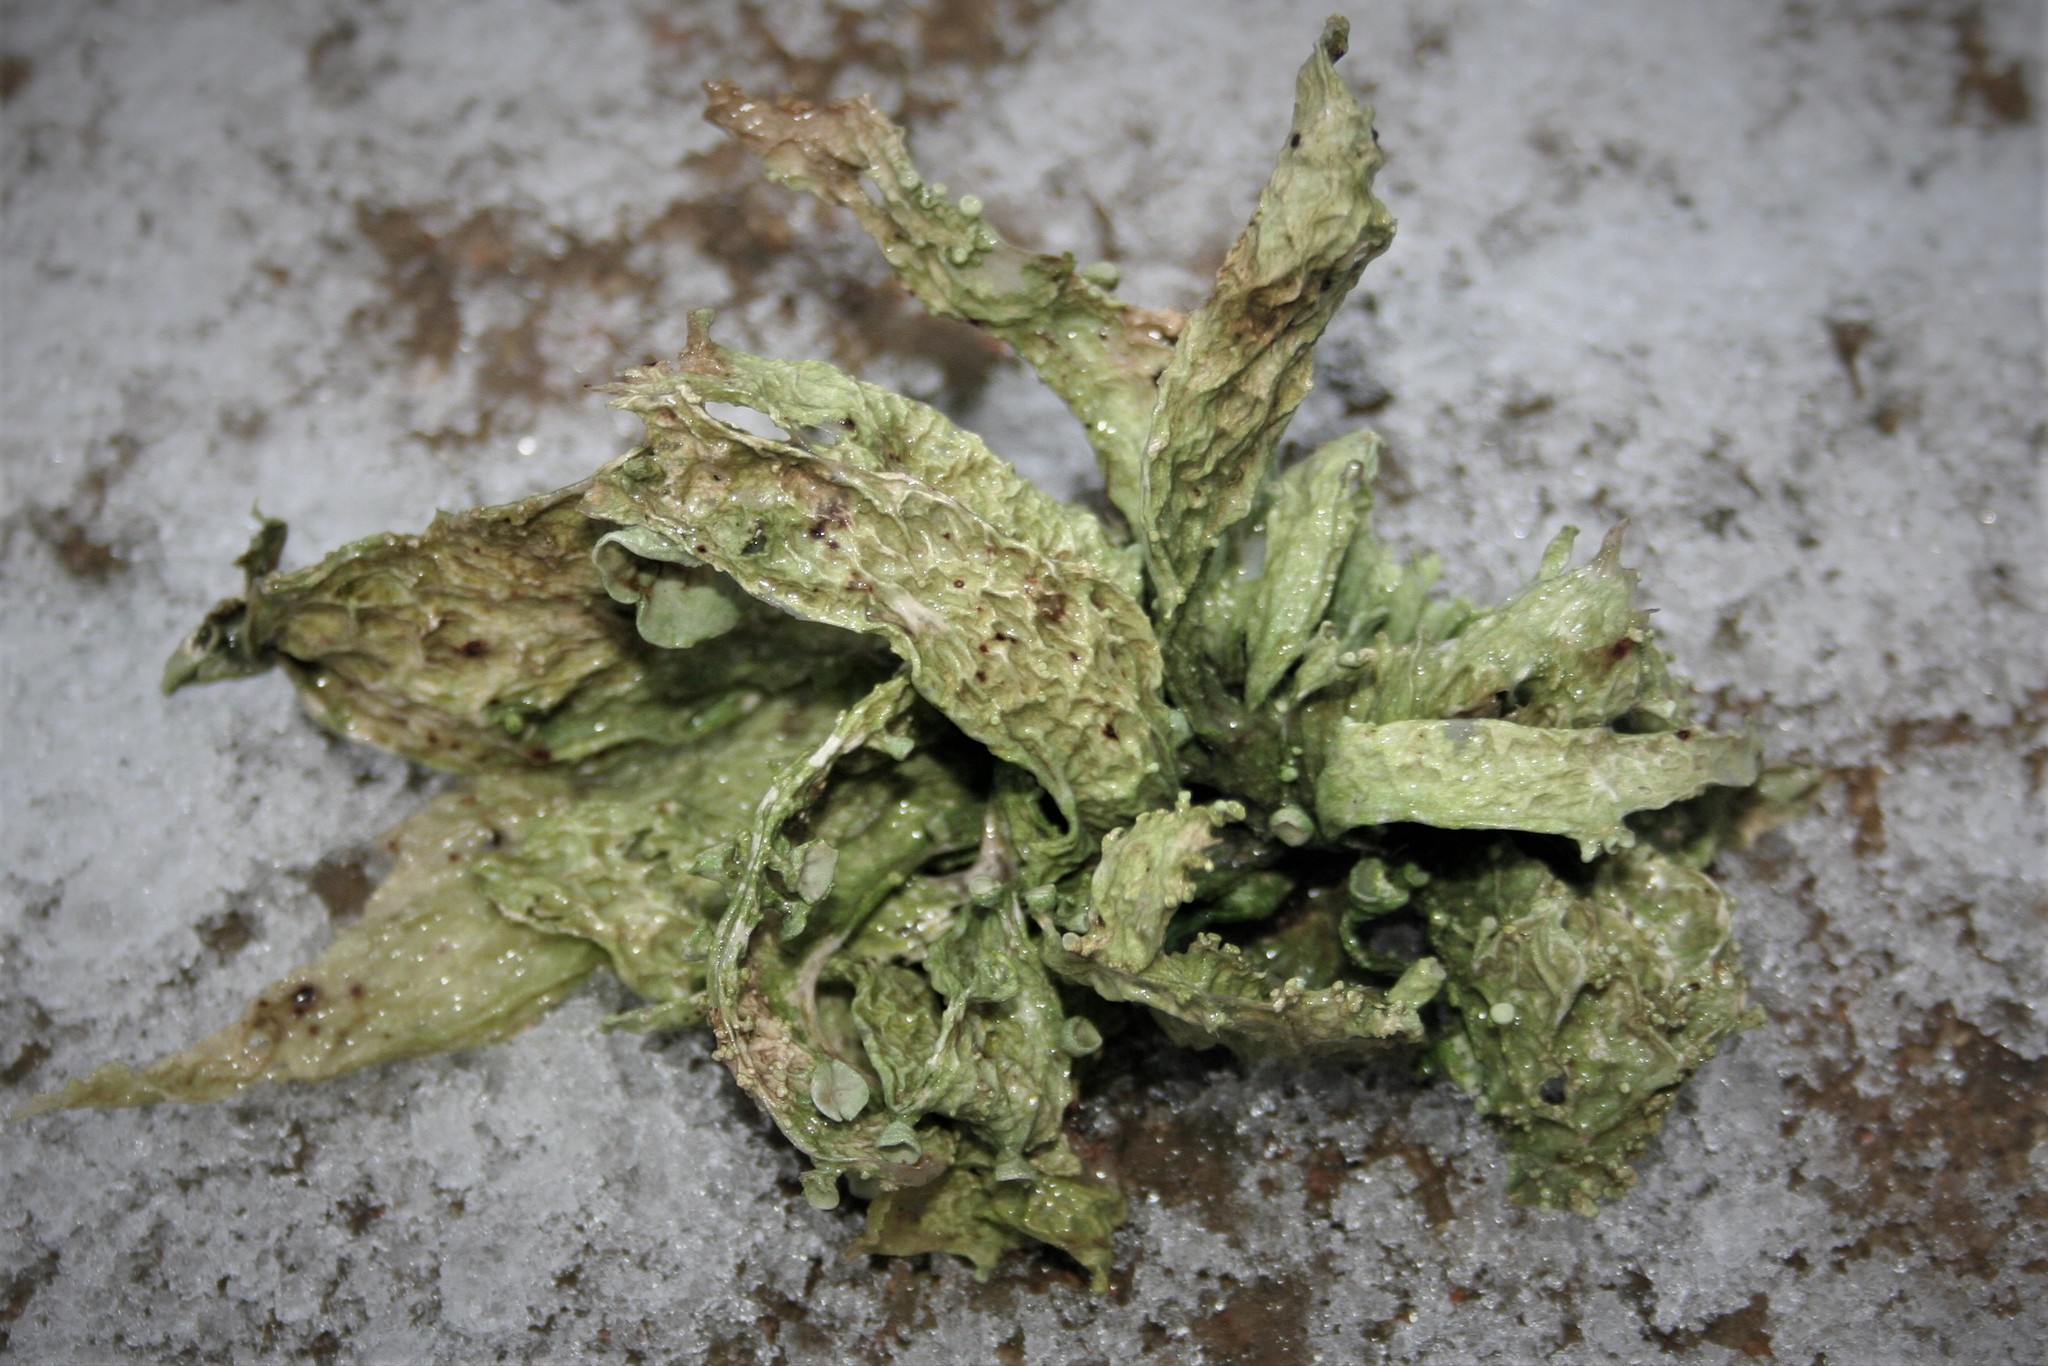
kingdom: Fungi
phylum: Ascomycota
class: Lecanoromycetes
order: Lecanorales
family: Ramalinaceae
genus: Ramalina
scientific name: Ramalina fraxinea
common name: Cartilage lichen
